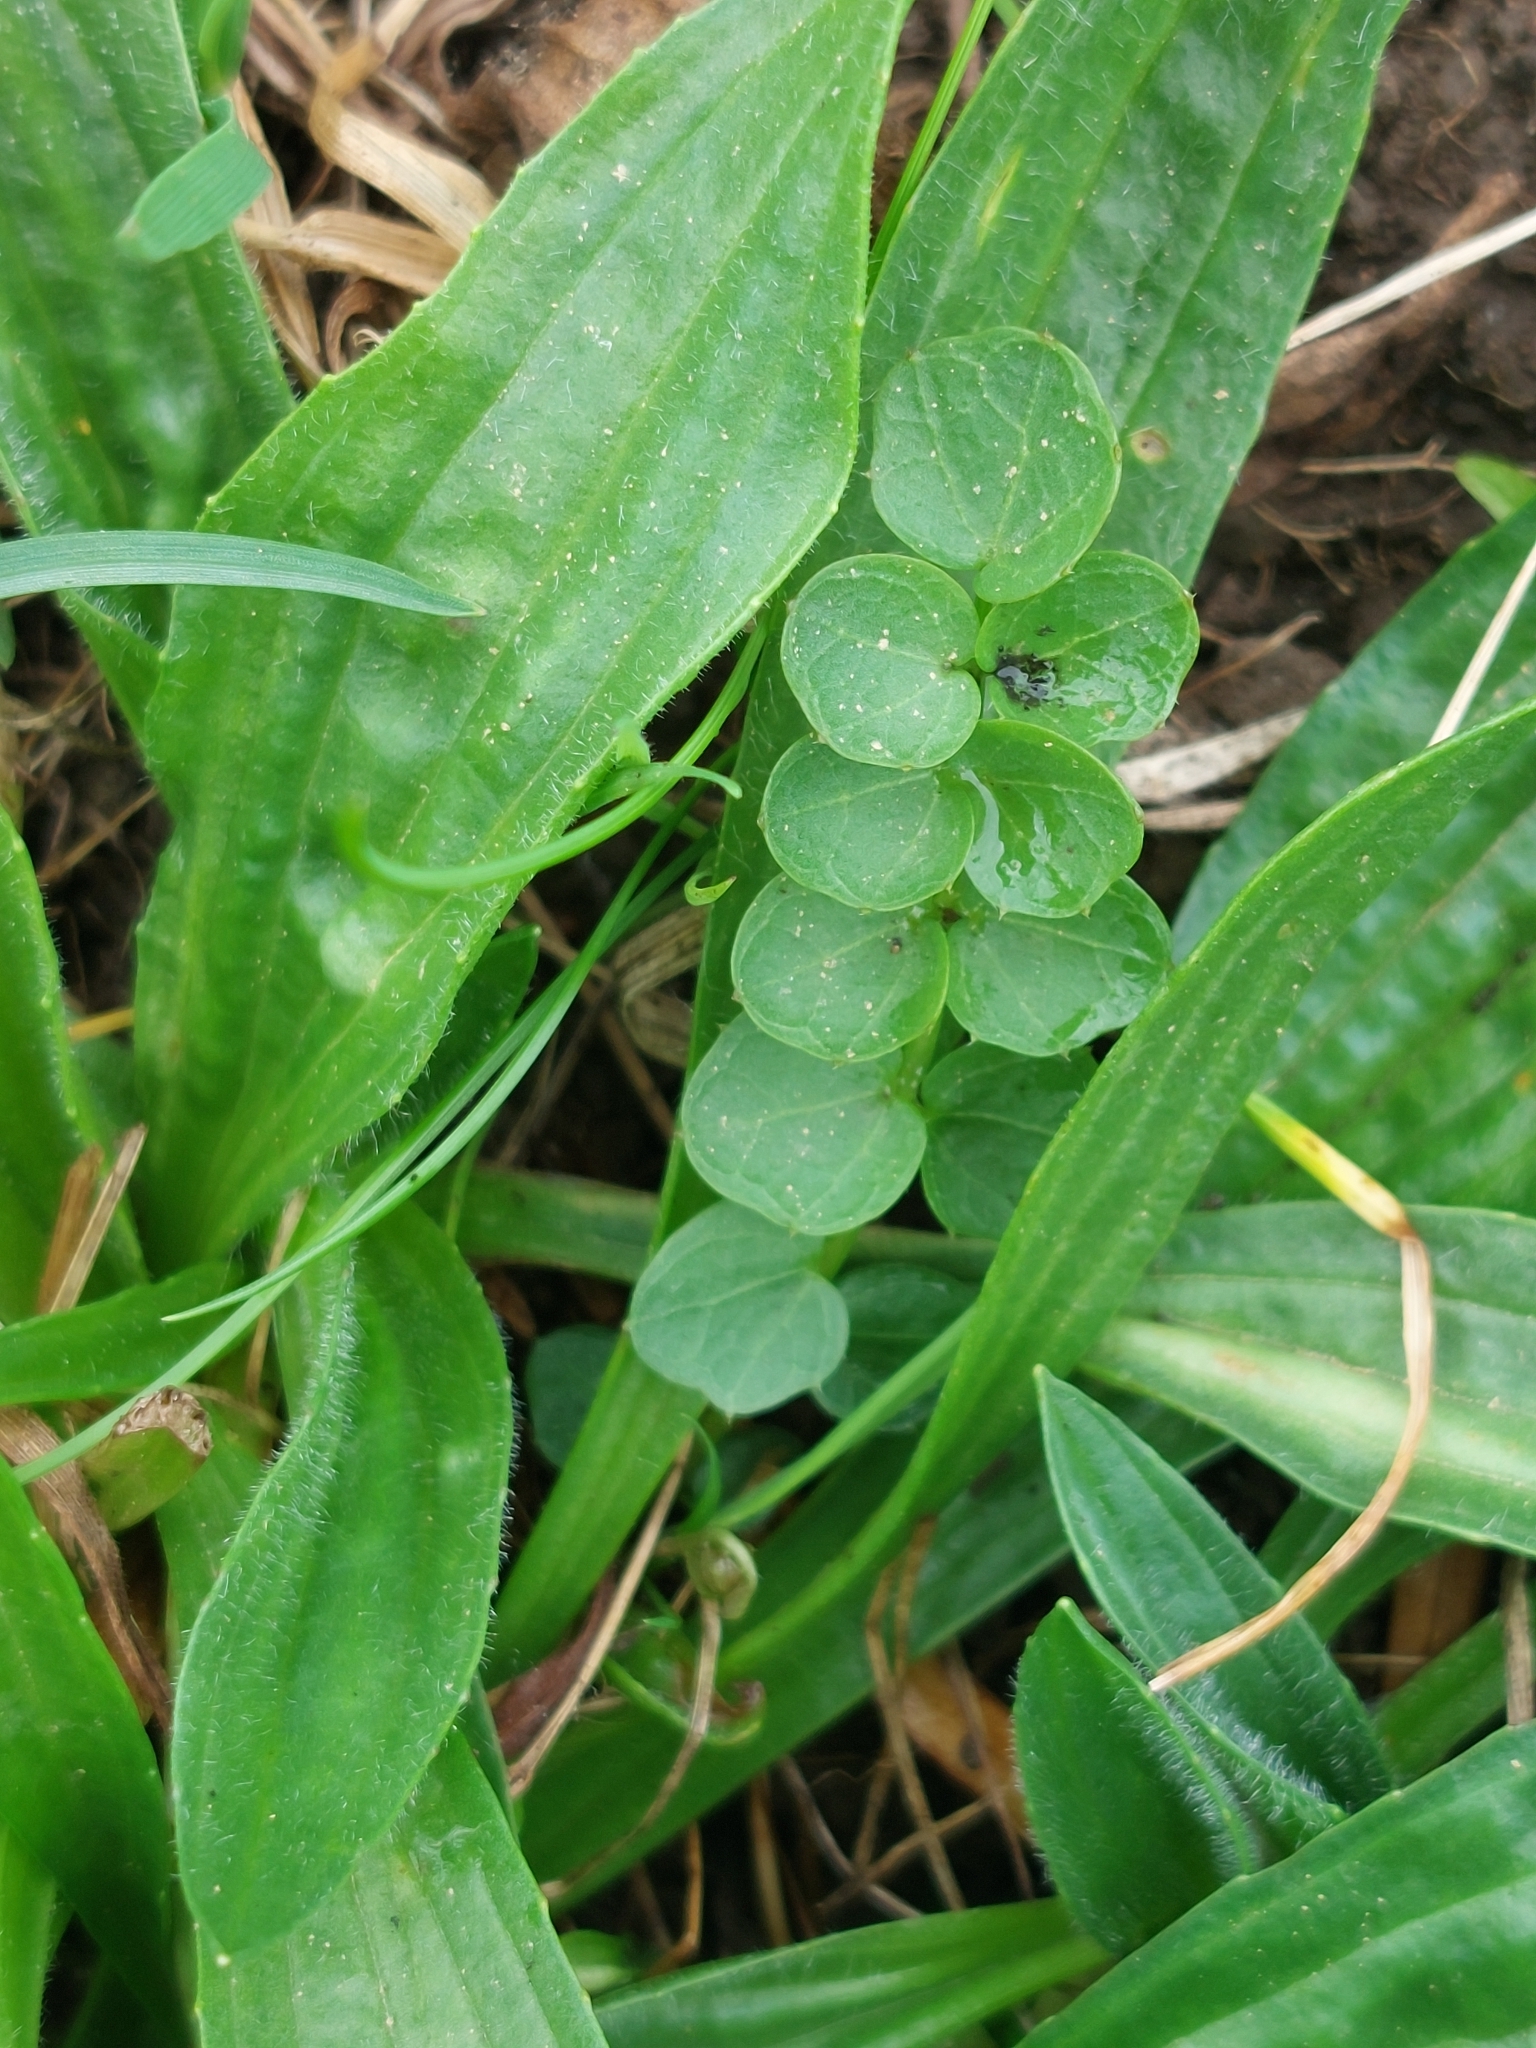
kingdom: Plantae
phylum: Tracheophyta
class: Magnoliopsida
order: Brassicales
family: Brassicaceae
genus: Cardamine
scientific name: Cardamine pratensis
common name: Cuckoo flower
